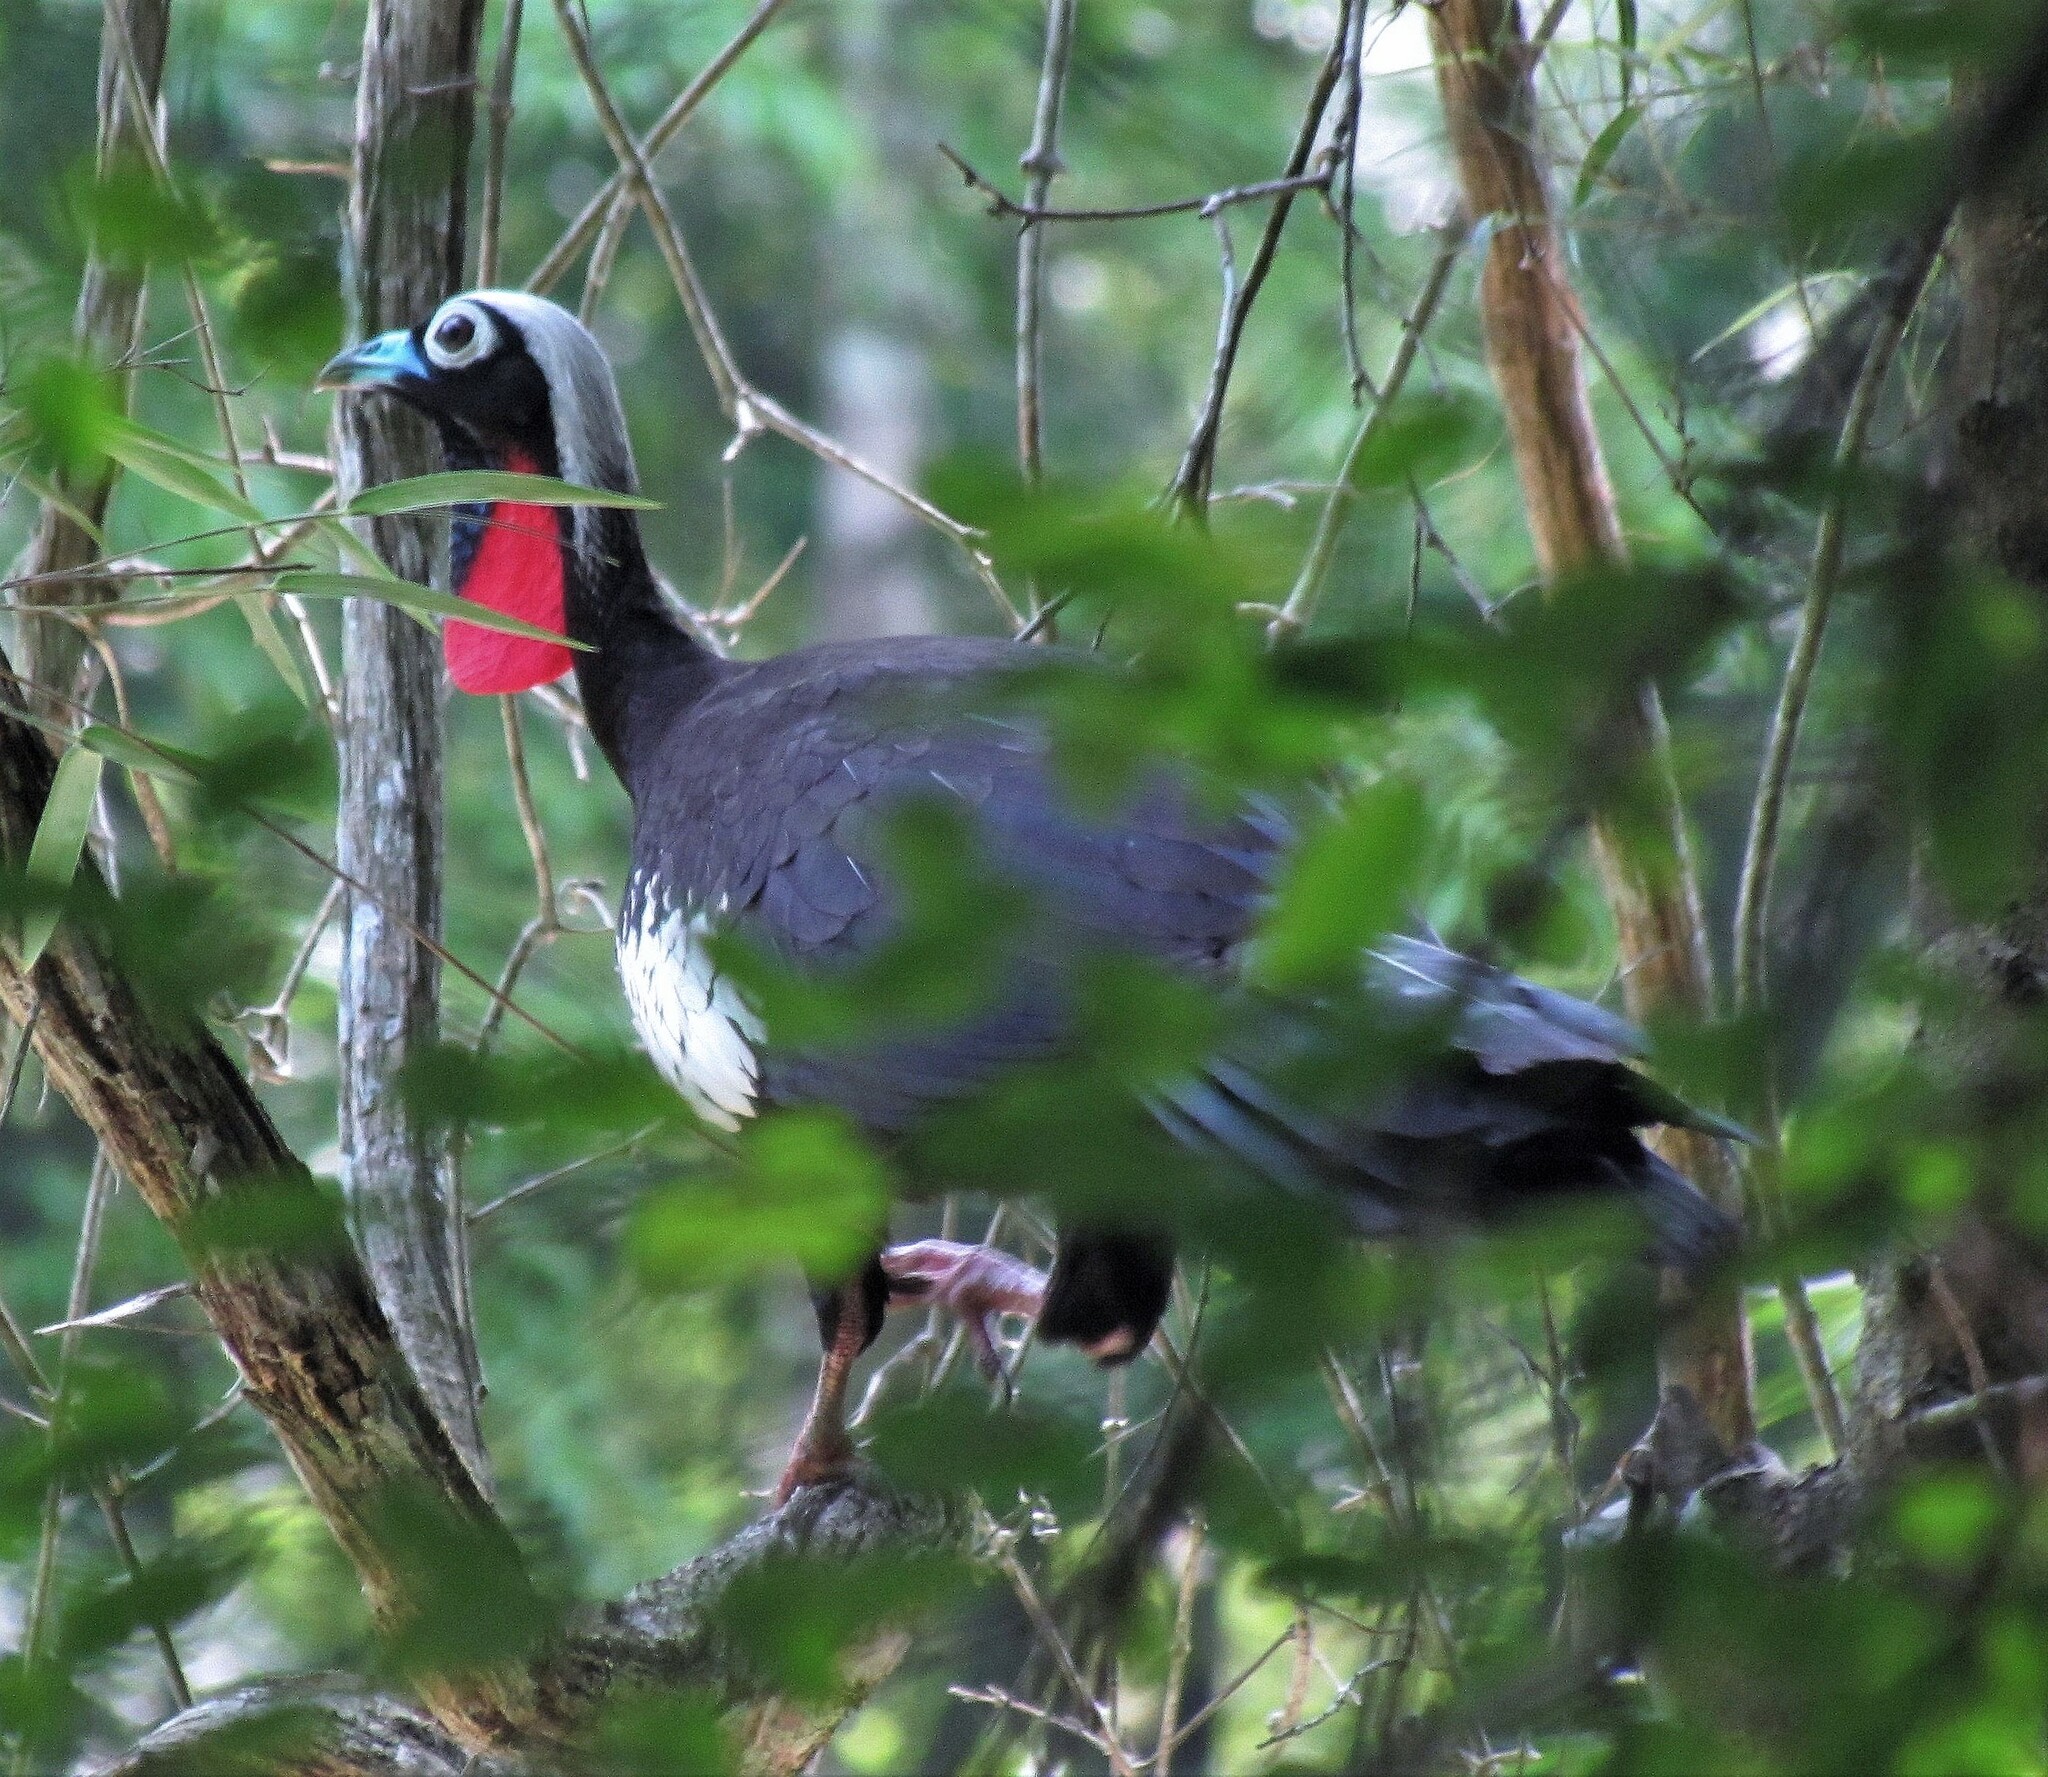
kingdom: Animalia
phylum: Chordata
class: Aves
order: Galliformes
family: Cracidae
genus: Pipile
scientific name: Pipile jacutinga
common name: Black-fronted piping-guan
